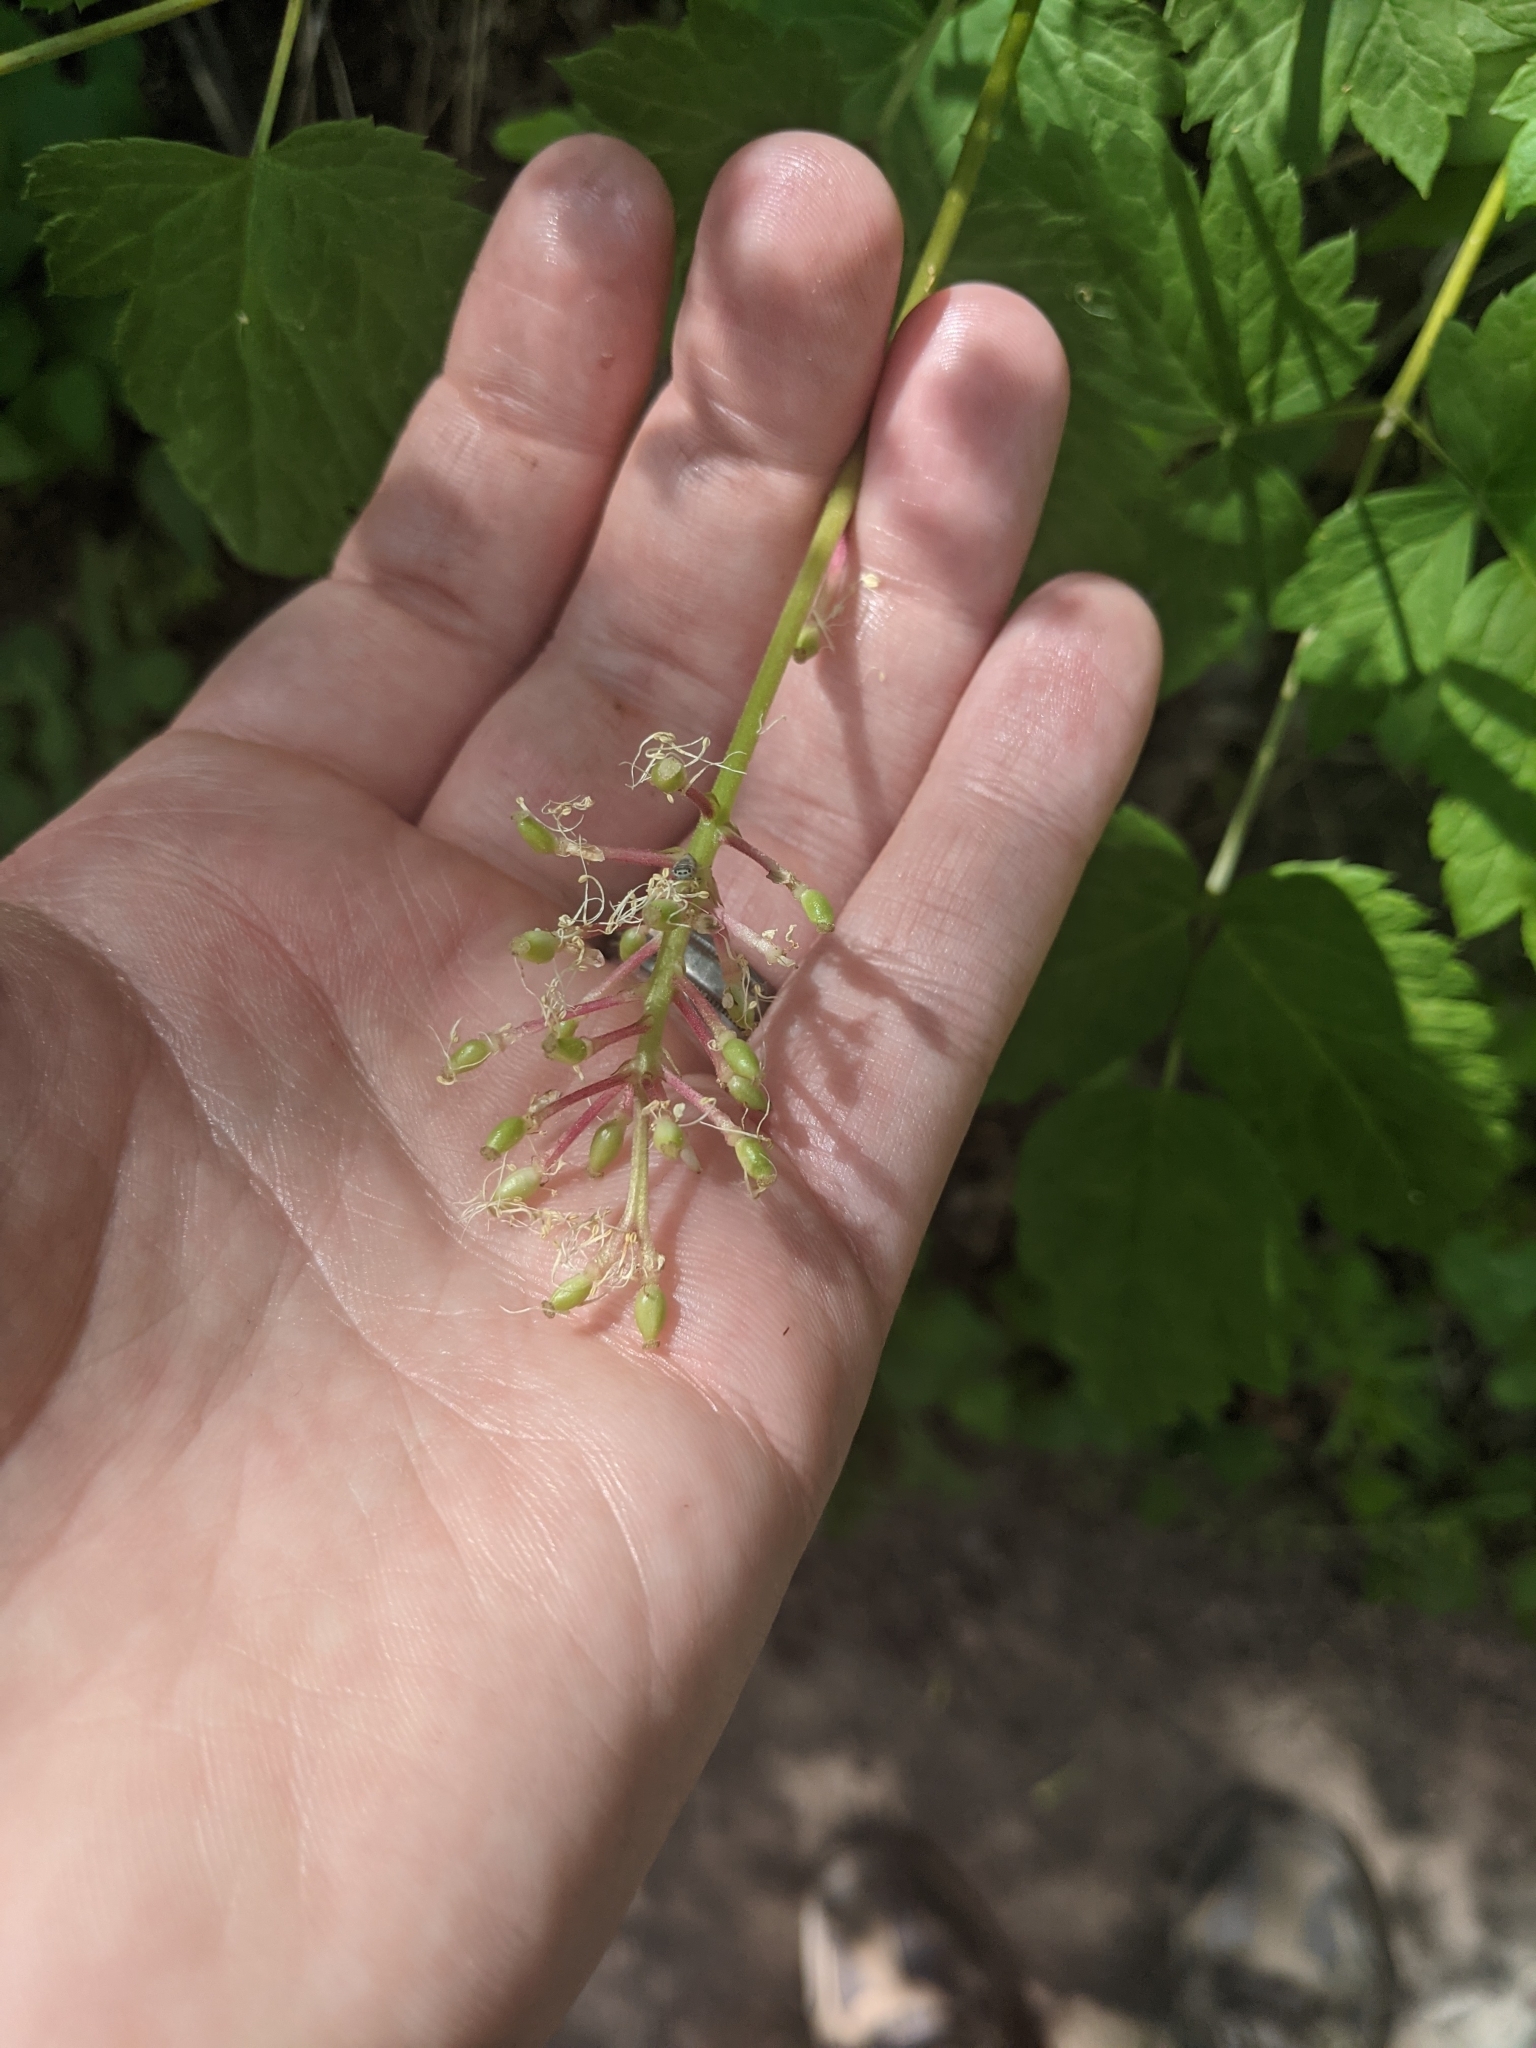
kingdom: Plantae
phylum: Tracheophyta
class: Magnoliopsida
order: Ranunculales
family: Ranunculaceae
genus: Actaea
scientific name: Actaea rubra
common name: Red baneberry
